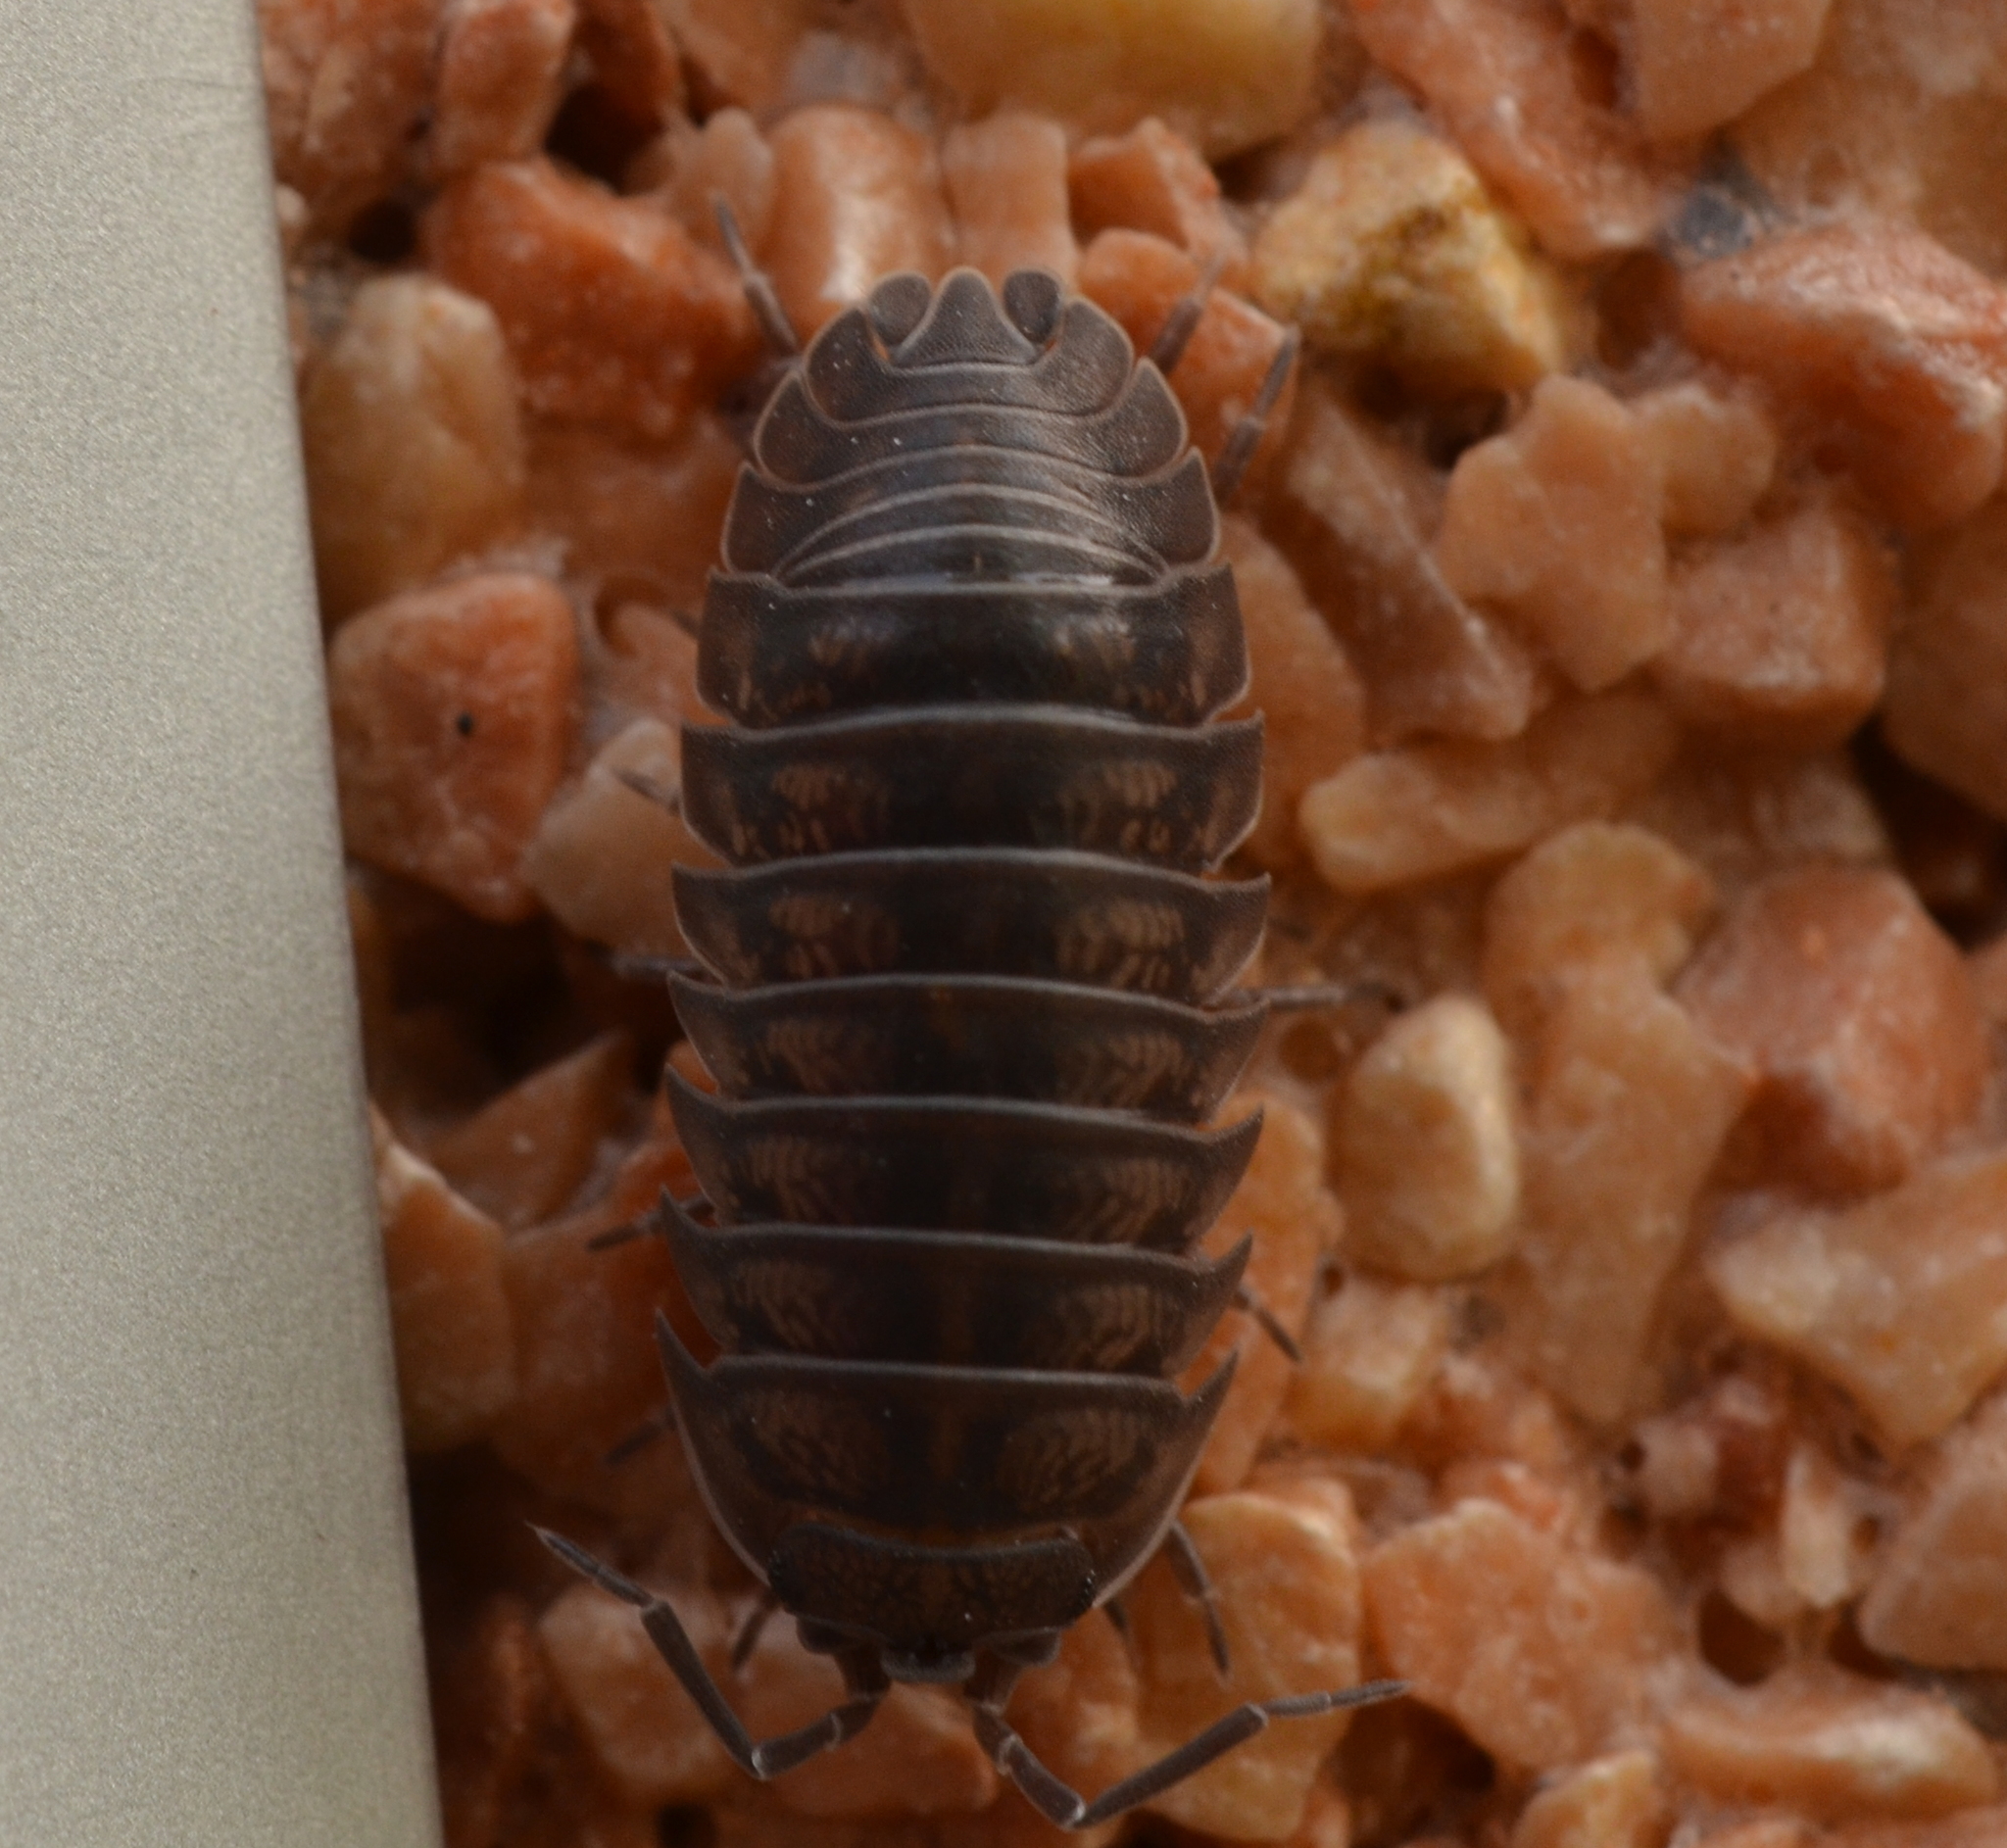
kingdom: Animalia
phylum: Arthropoda
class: Malacostraca
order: Isopoda
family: Armadillidiidae
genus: Armadillidium
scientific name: Armadillidium nasatum
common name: Isopod
